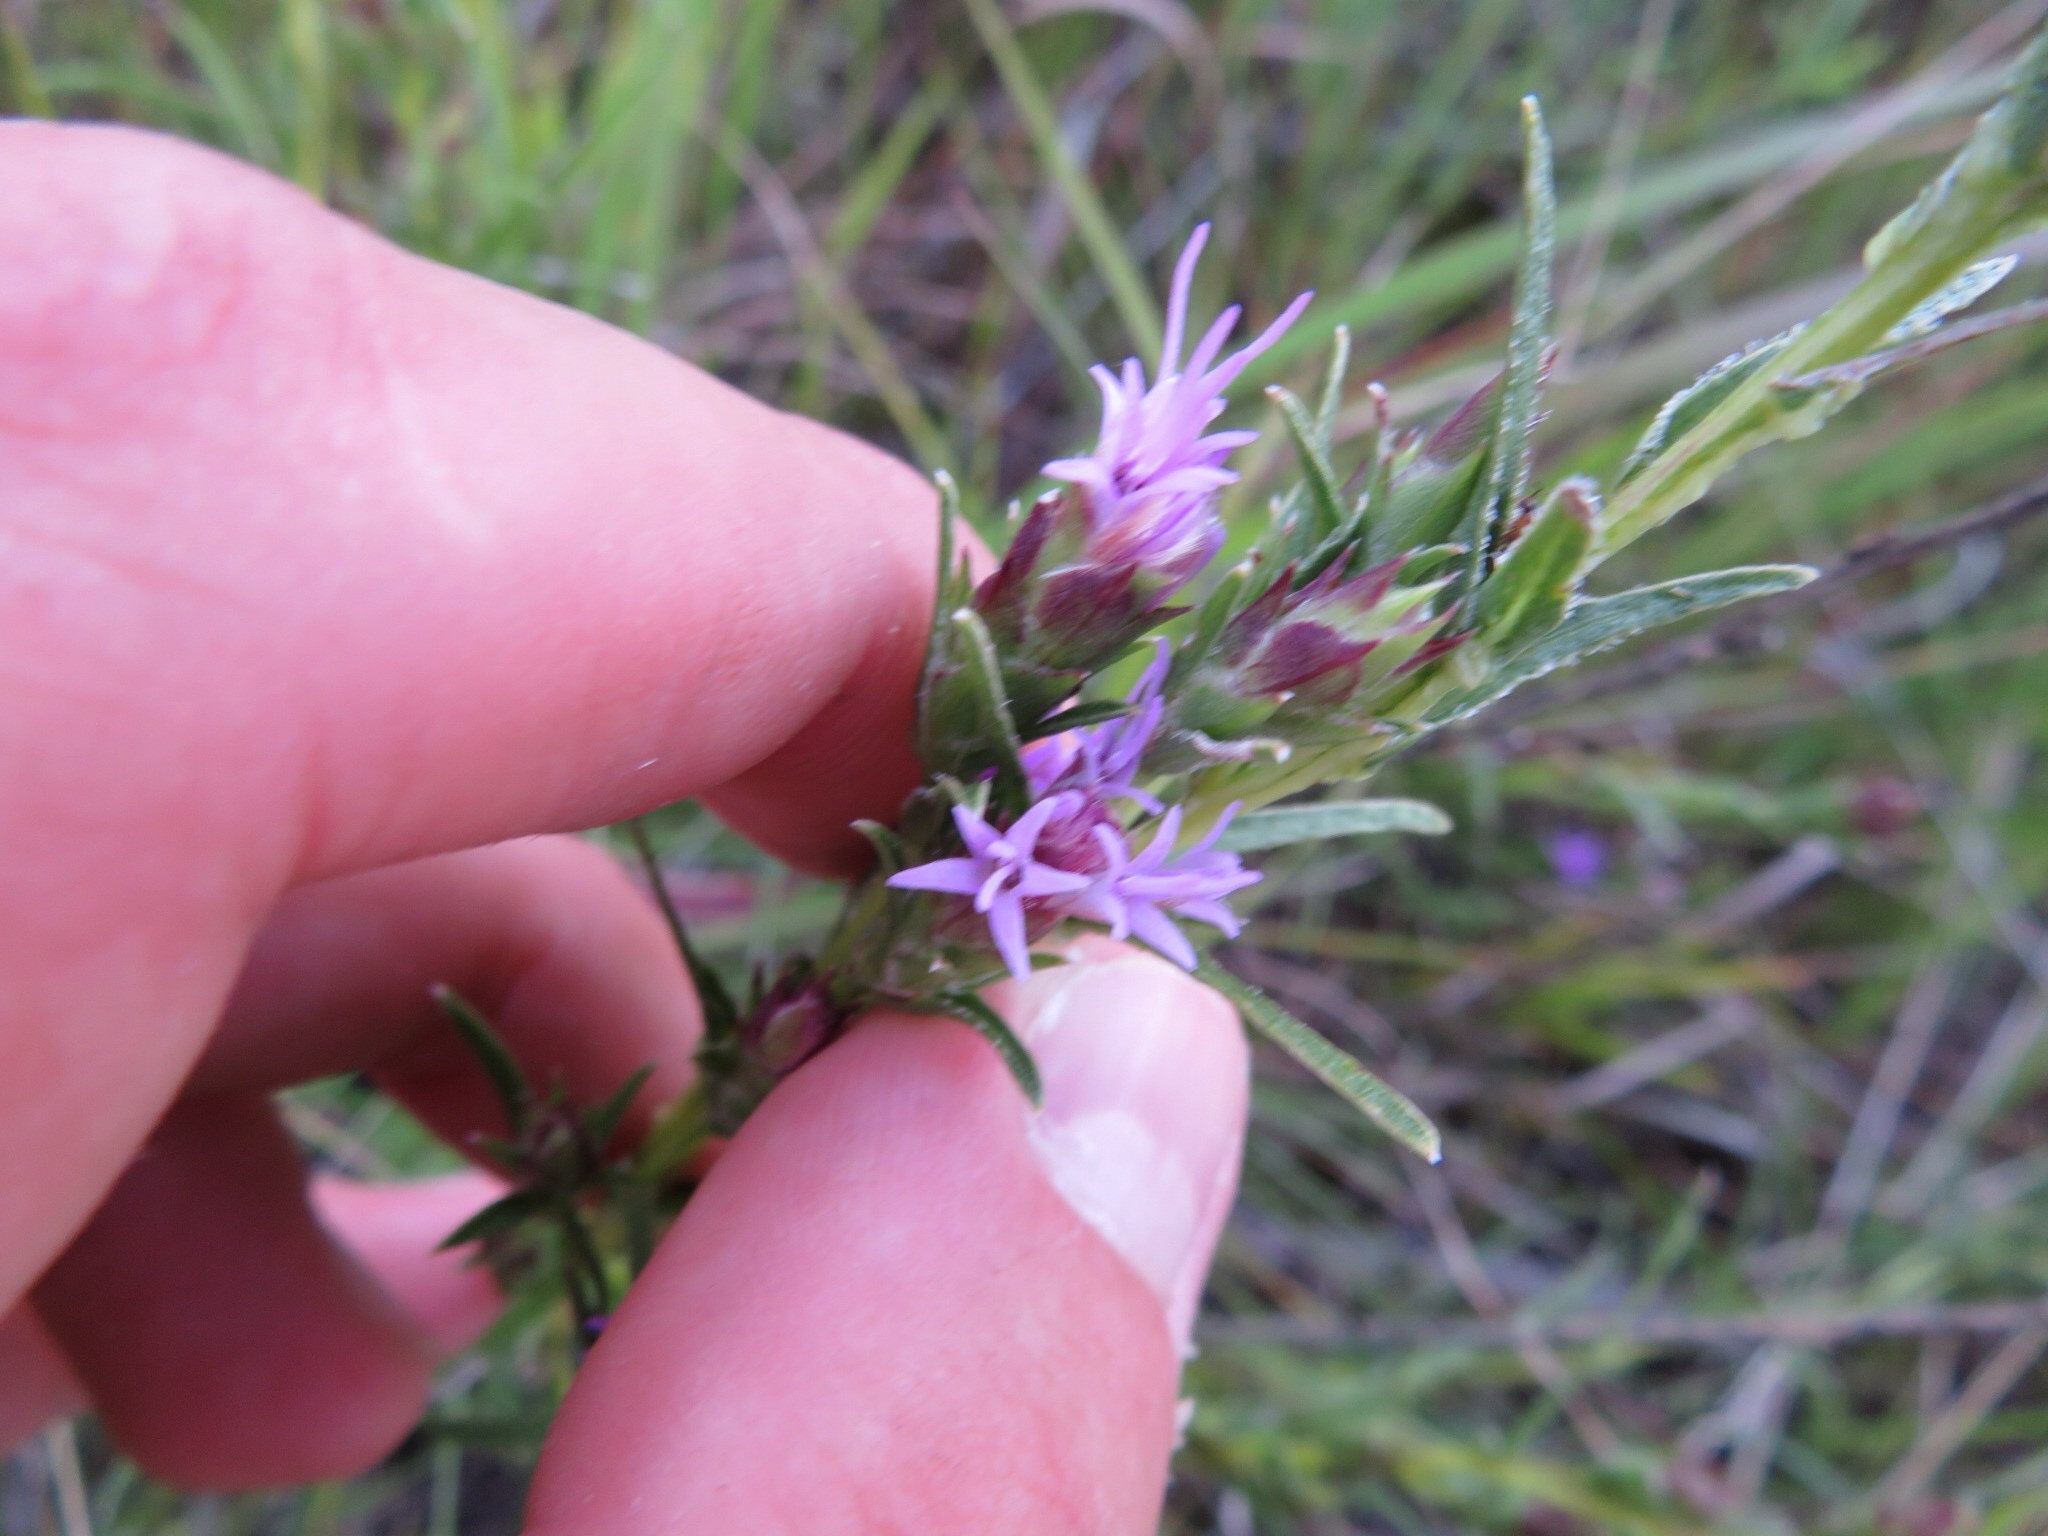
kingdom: Plantae
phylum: Tracheophyta
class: Magnoliopsida
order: Asterales
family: Asteraceae
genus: Liatris
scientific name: Liatris punctata
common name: Dotted gayfeather
